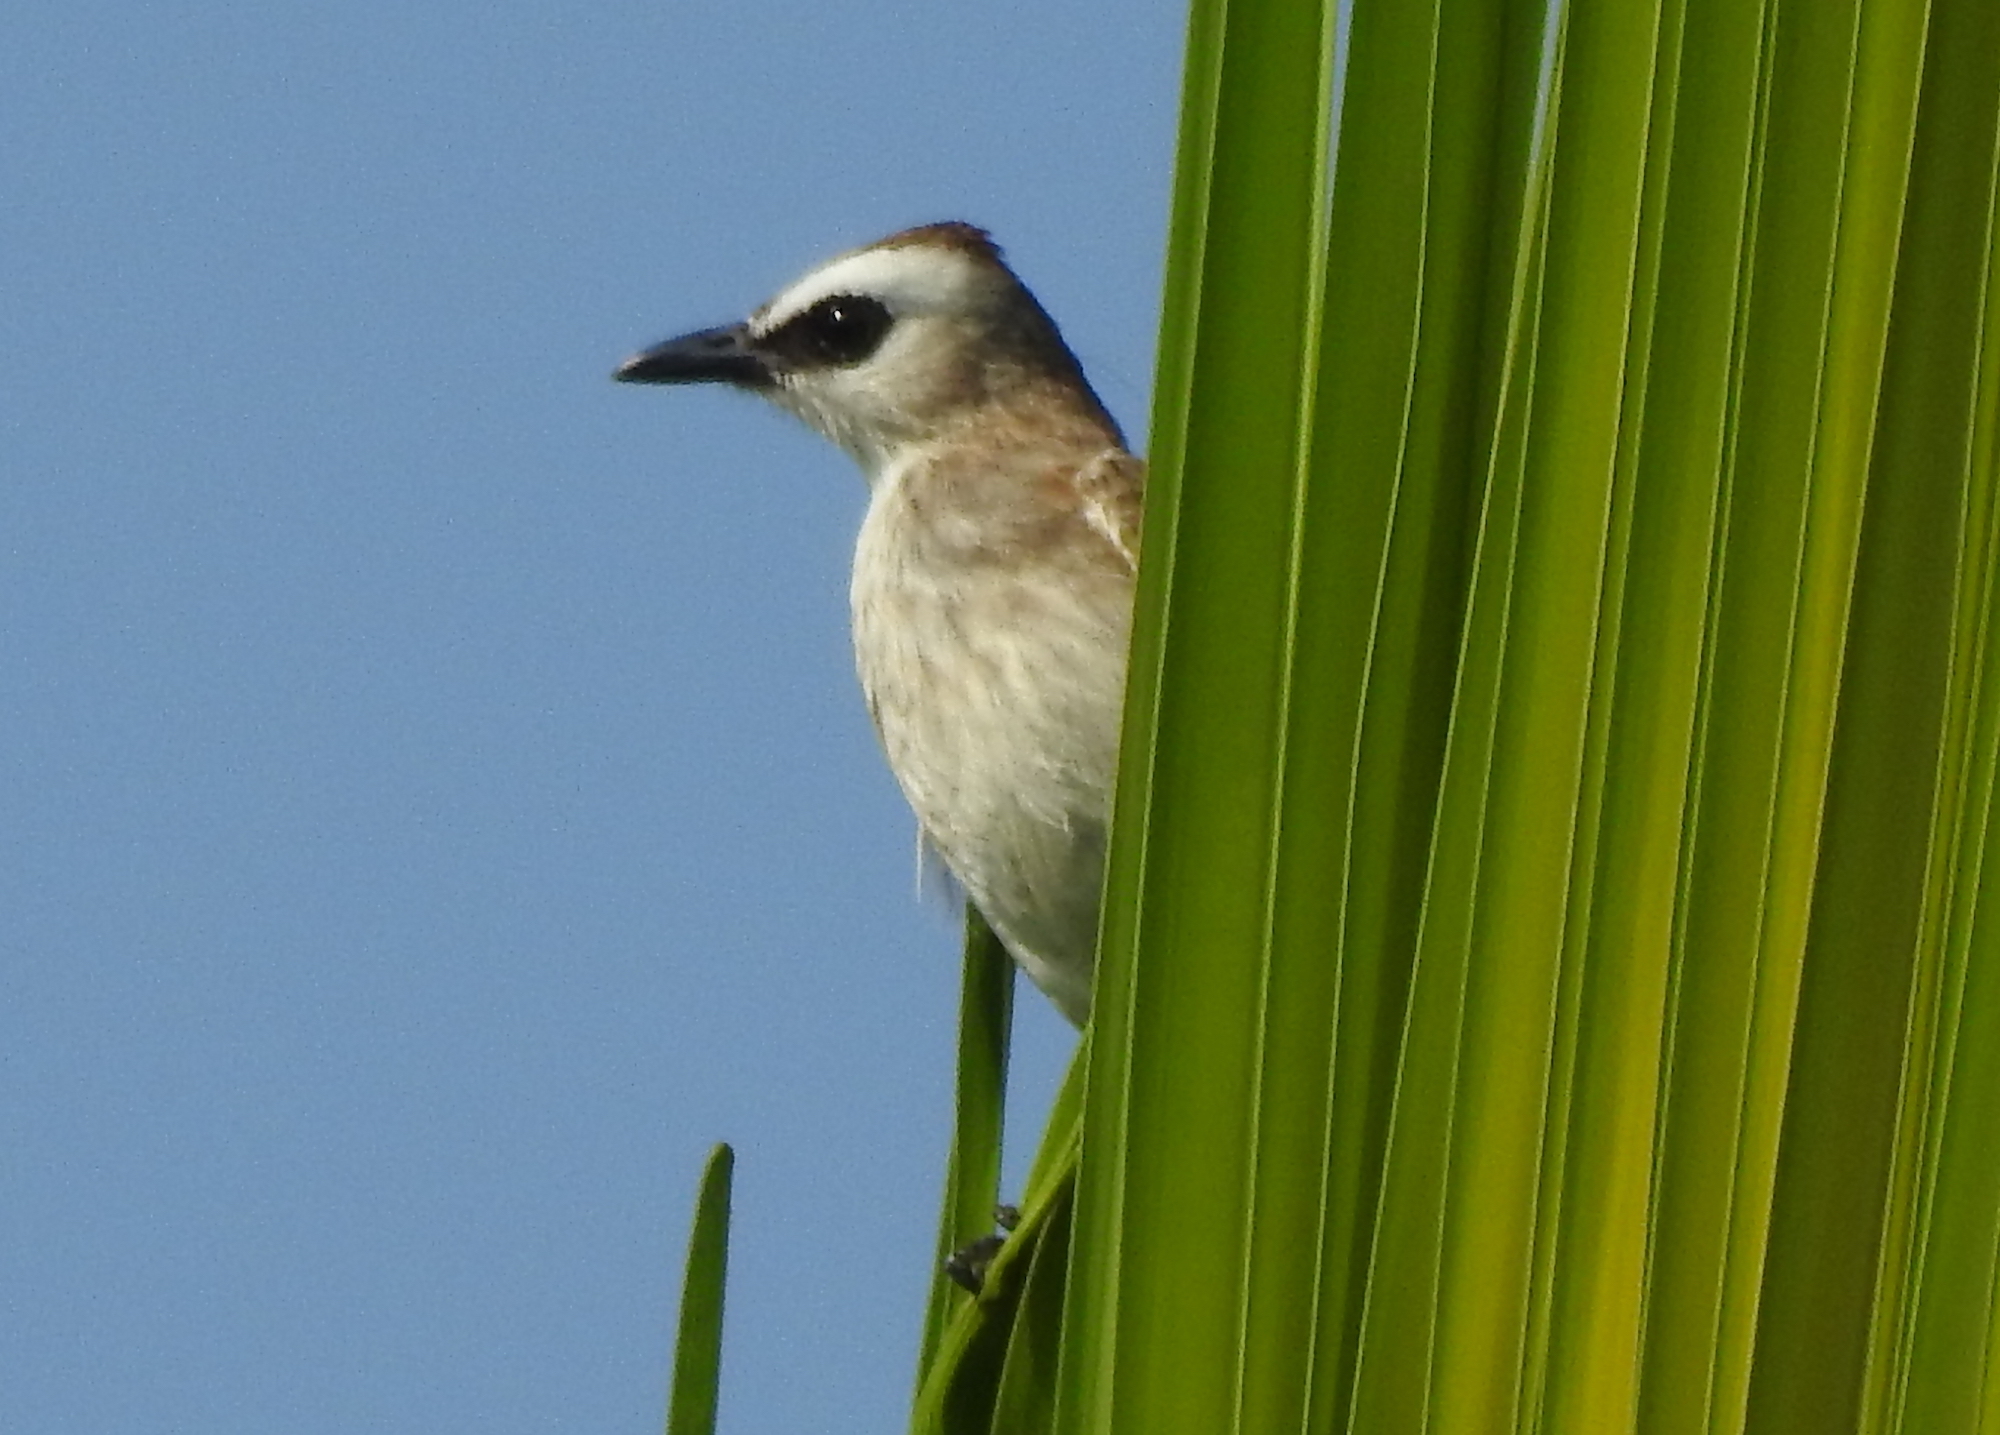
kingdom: Animalia
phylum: Chordata
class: Aves
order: Passeriformes
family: Pycnonotidae
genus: Pycnonotus
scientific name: Pycnonotus goiavier
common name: Yellow-vented bulbul
